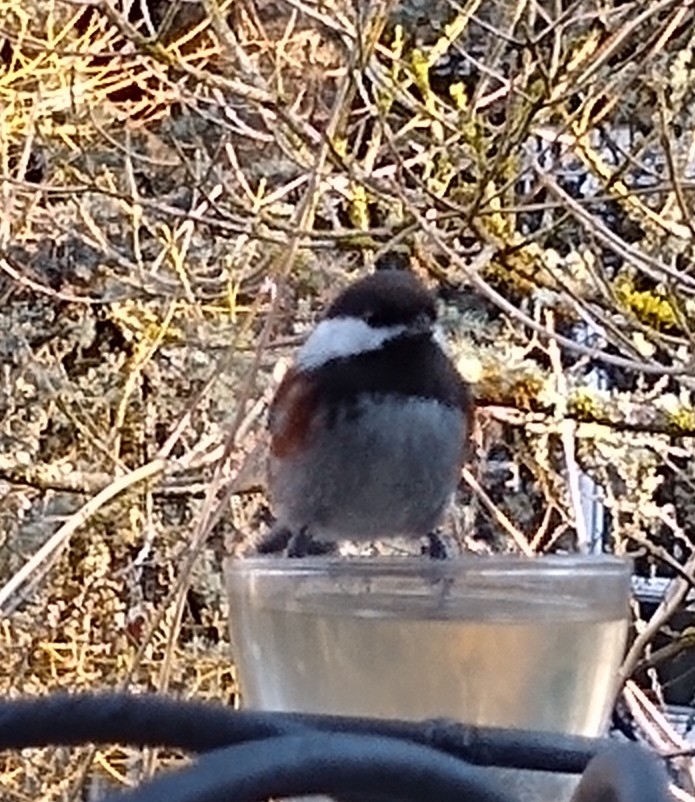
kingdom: Animalia
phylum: Chordata
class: Aves
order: Passeriformes
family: Paridae
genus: Poecile
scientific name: Poecile rufescens
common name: Chestnut-backed chickadee
